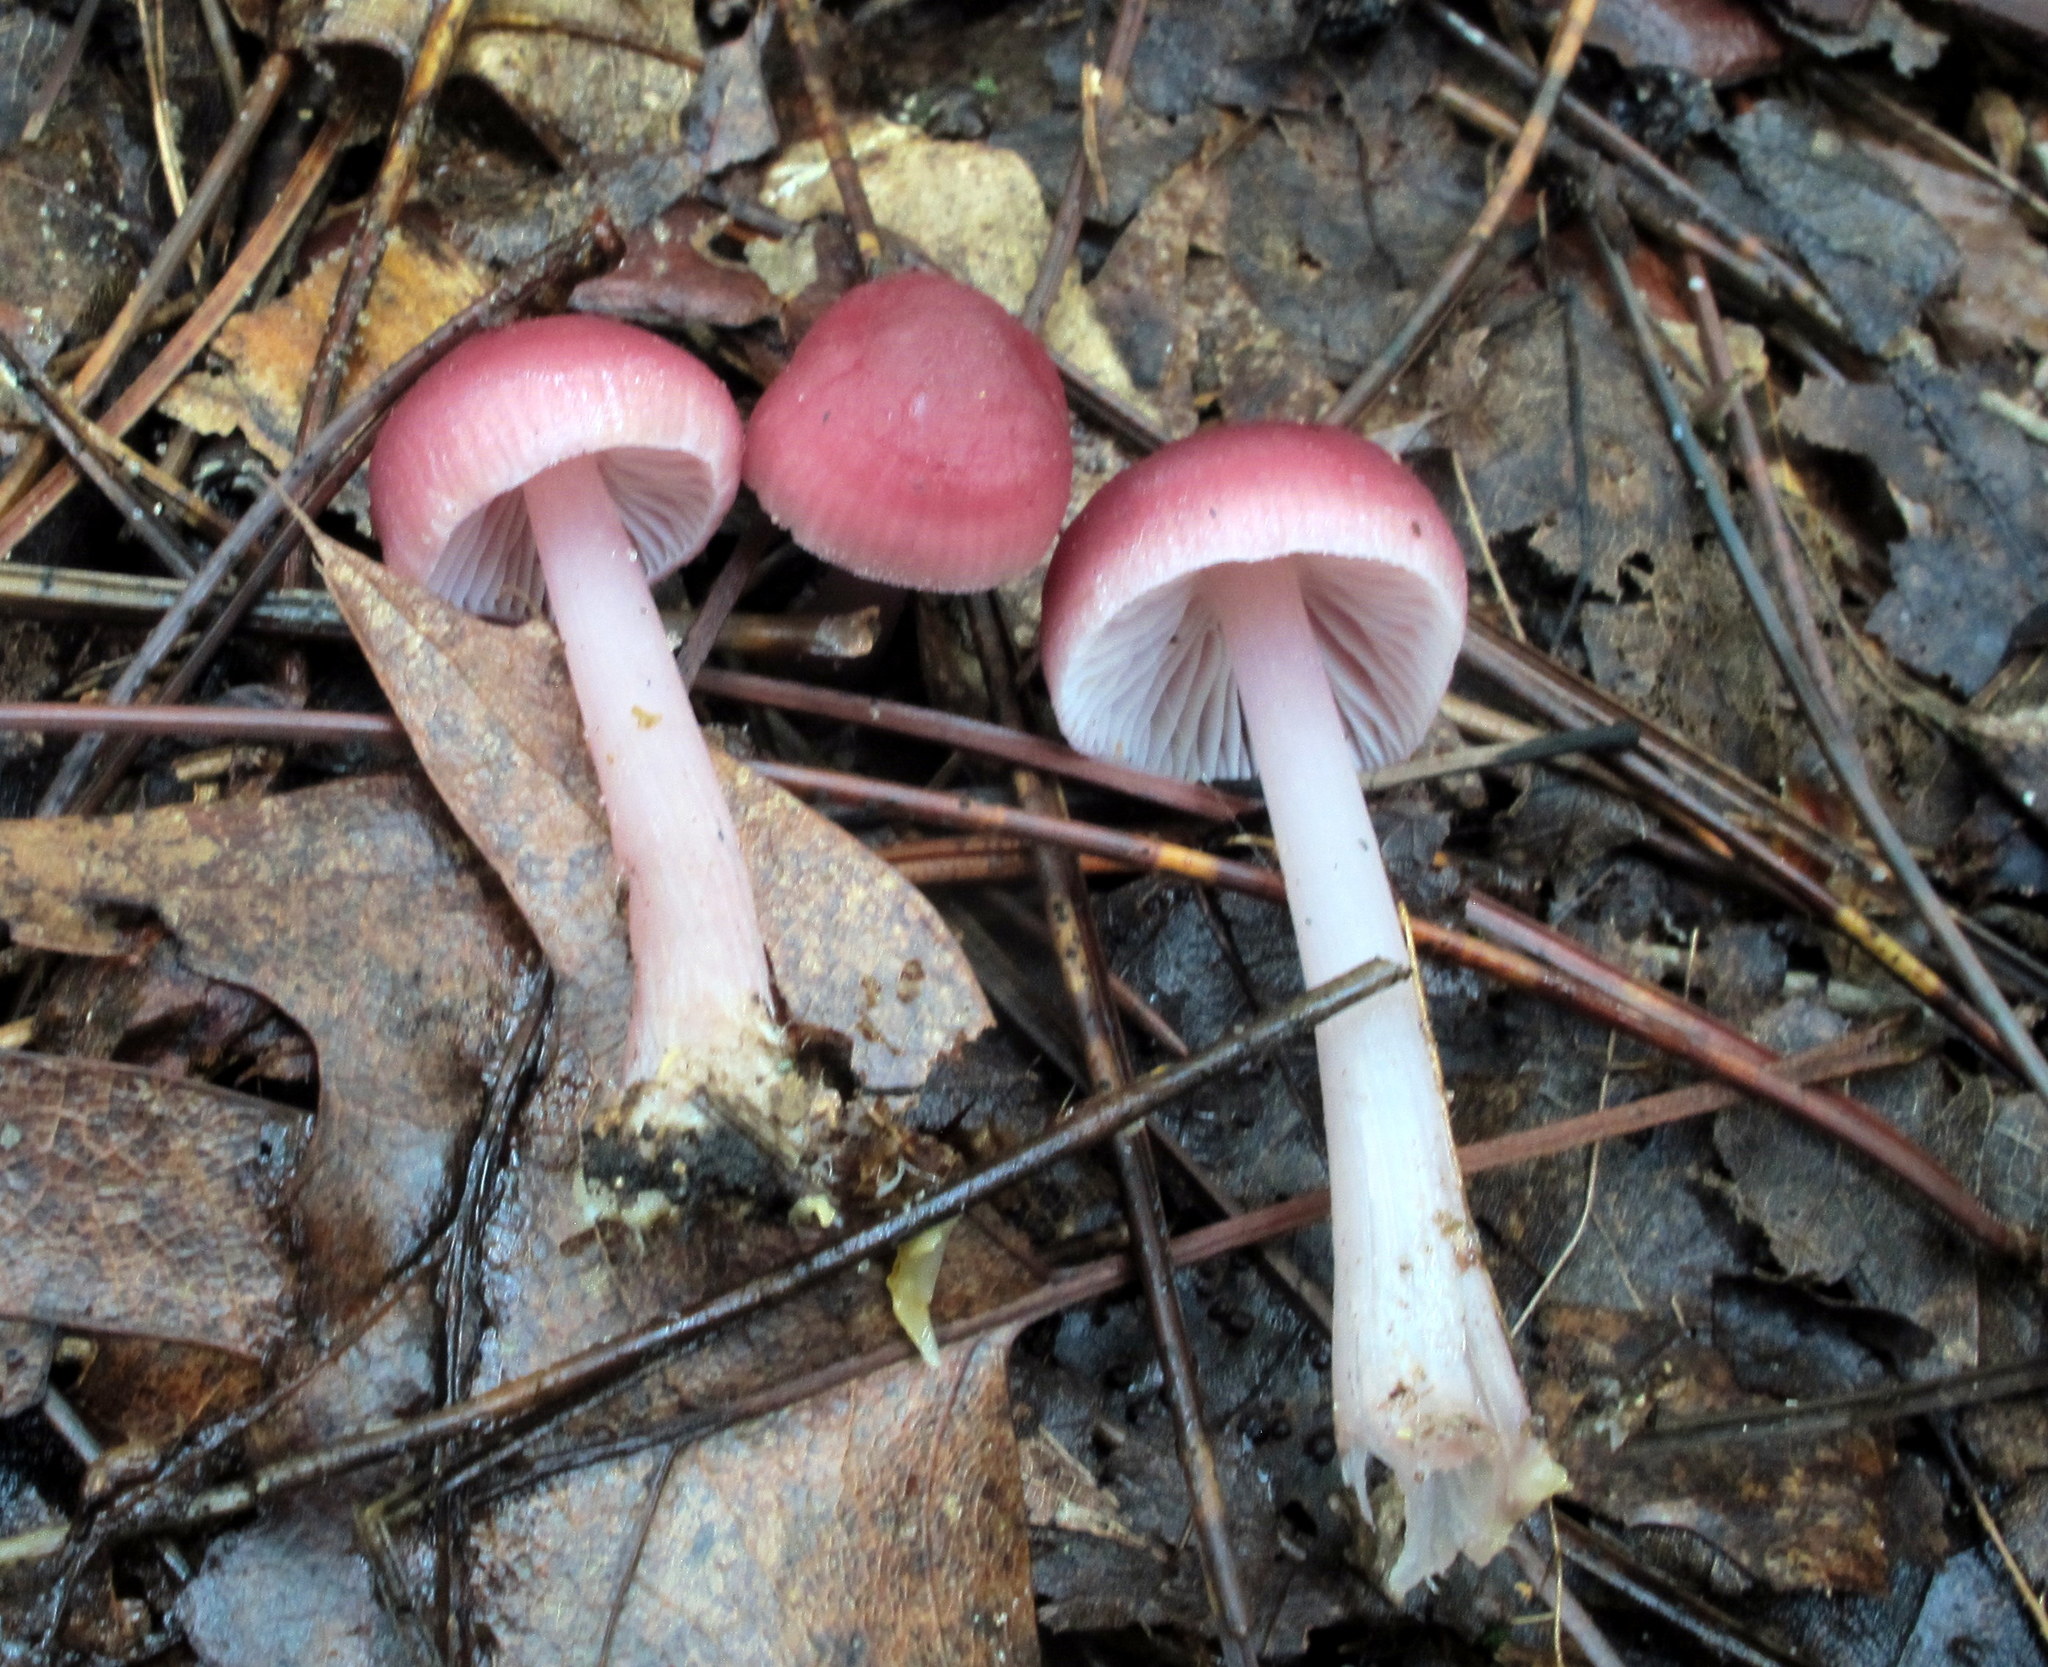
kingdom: Fungi
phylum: Basidiomycota
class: Agaricomycetes
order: Agaricales
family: Mycenaceae
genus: Mycena
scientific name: Mycena pura
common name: Lilac bonnet
